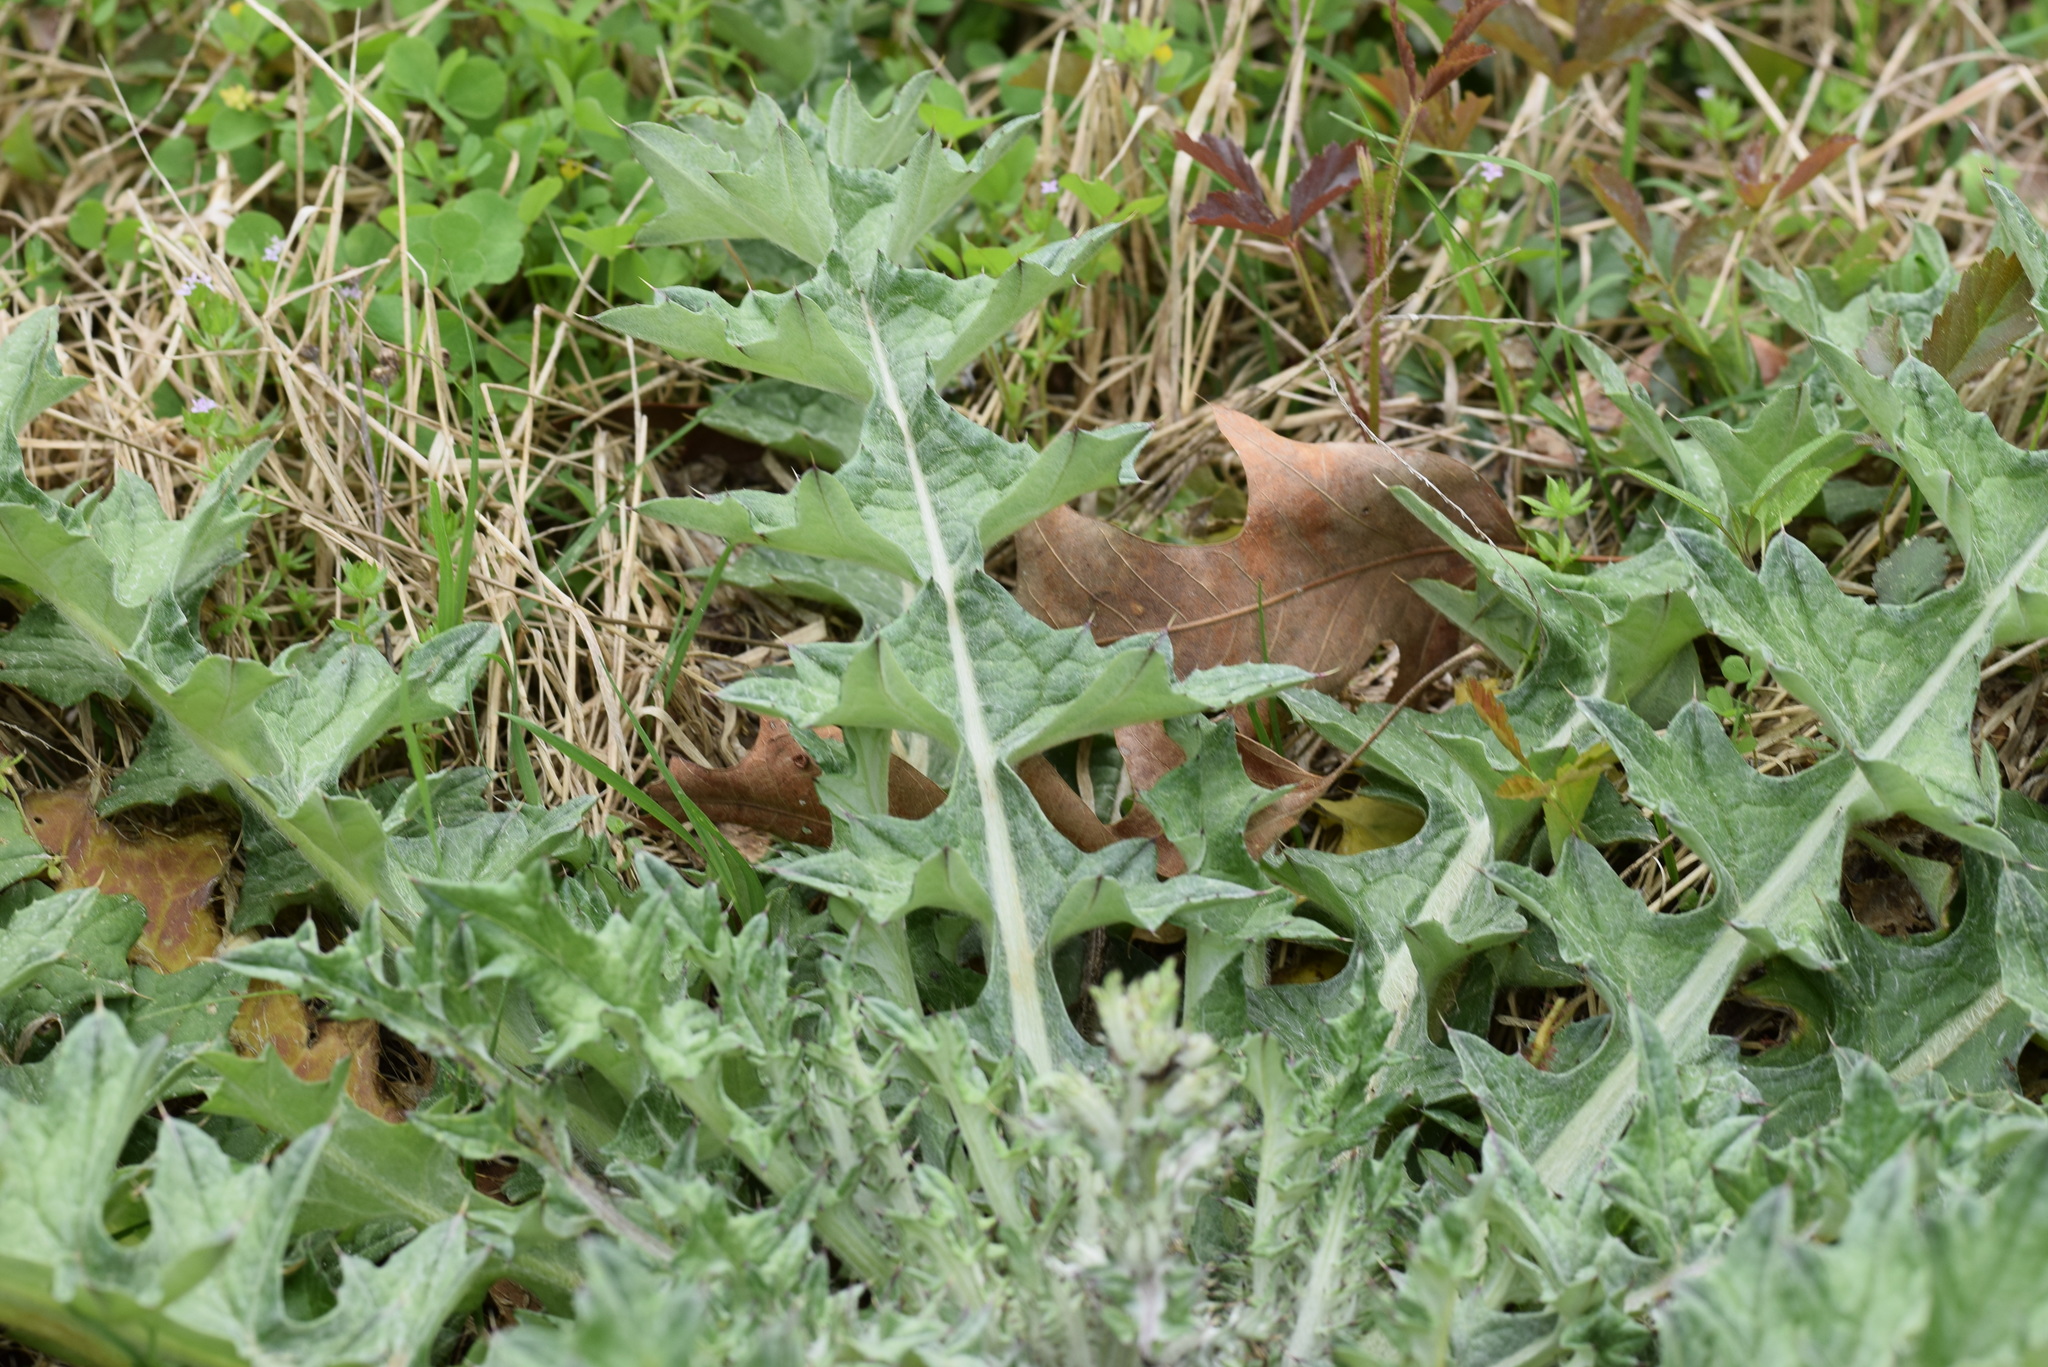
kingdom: Plantae
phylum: Tracheophyta
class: Magnoliopsida
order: Asterales
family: Asteraceae
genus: Cirsium
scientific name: Cirsium horridulum
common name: Bristly thistle
